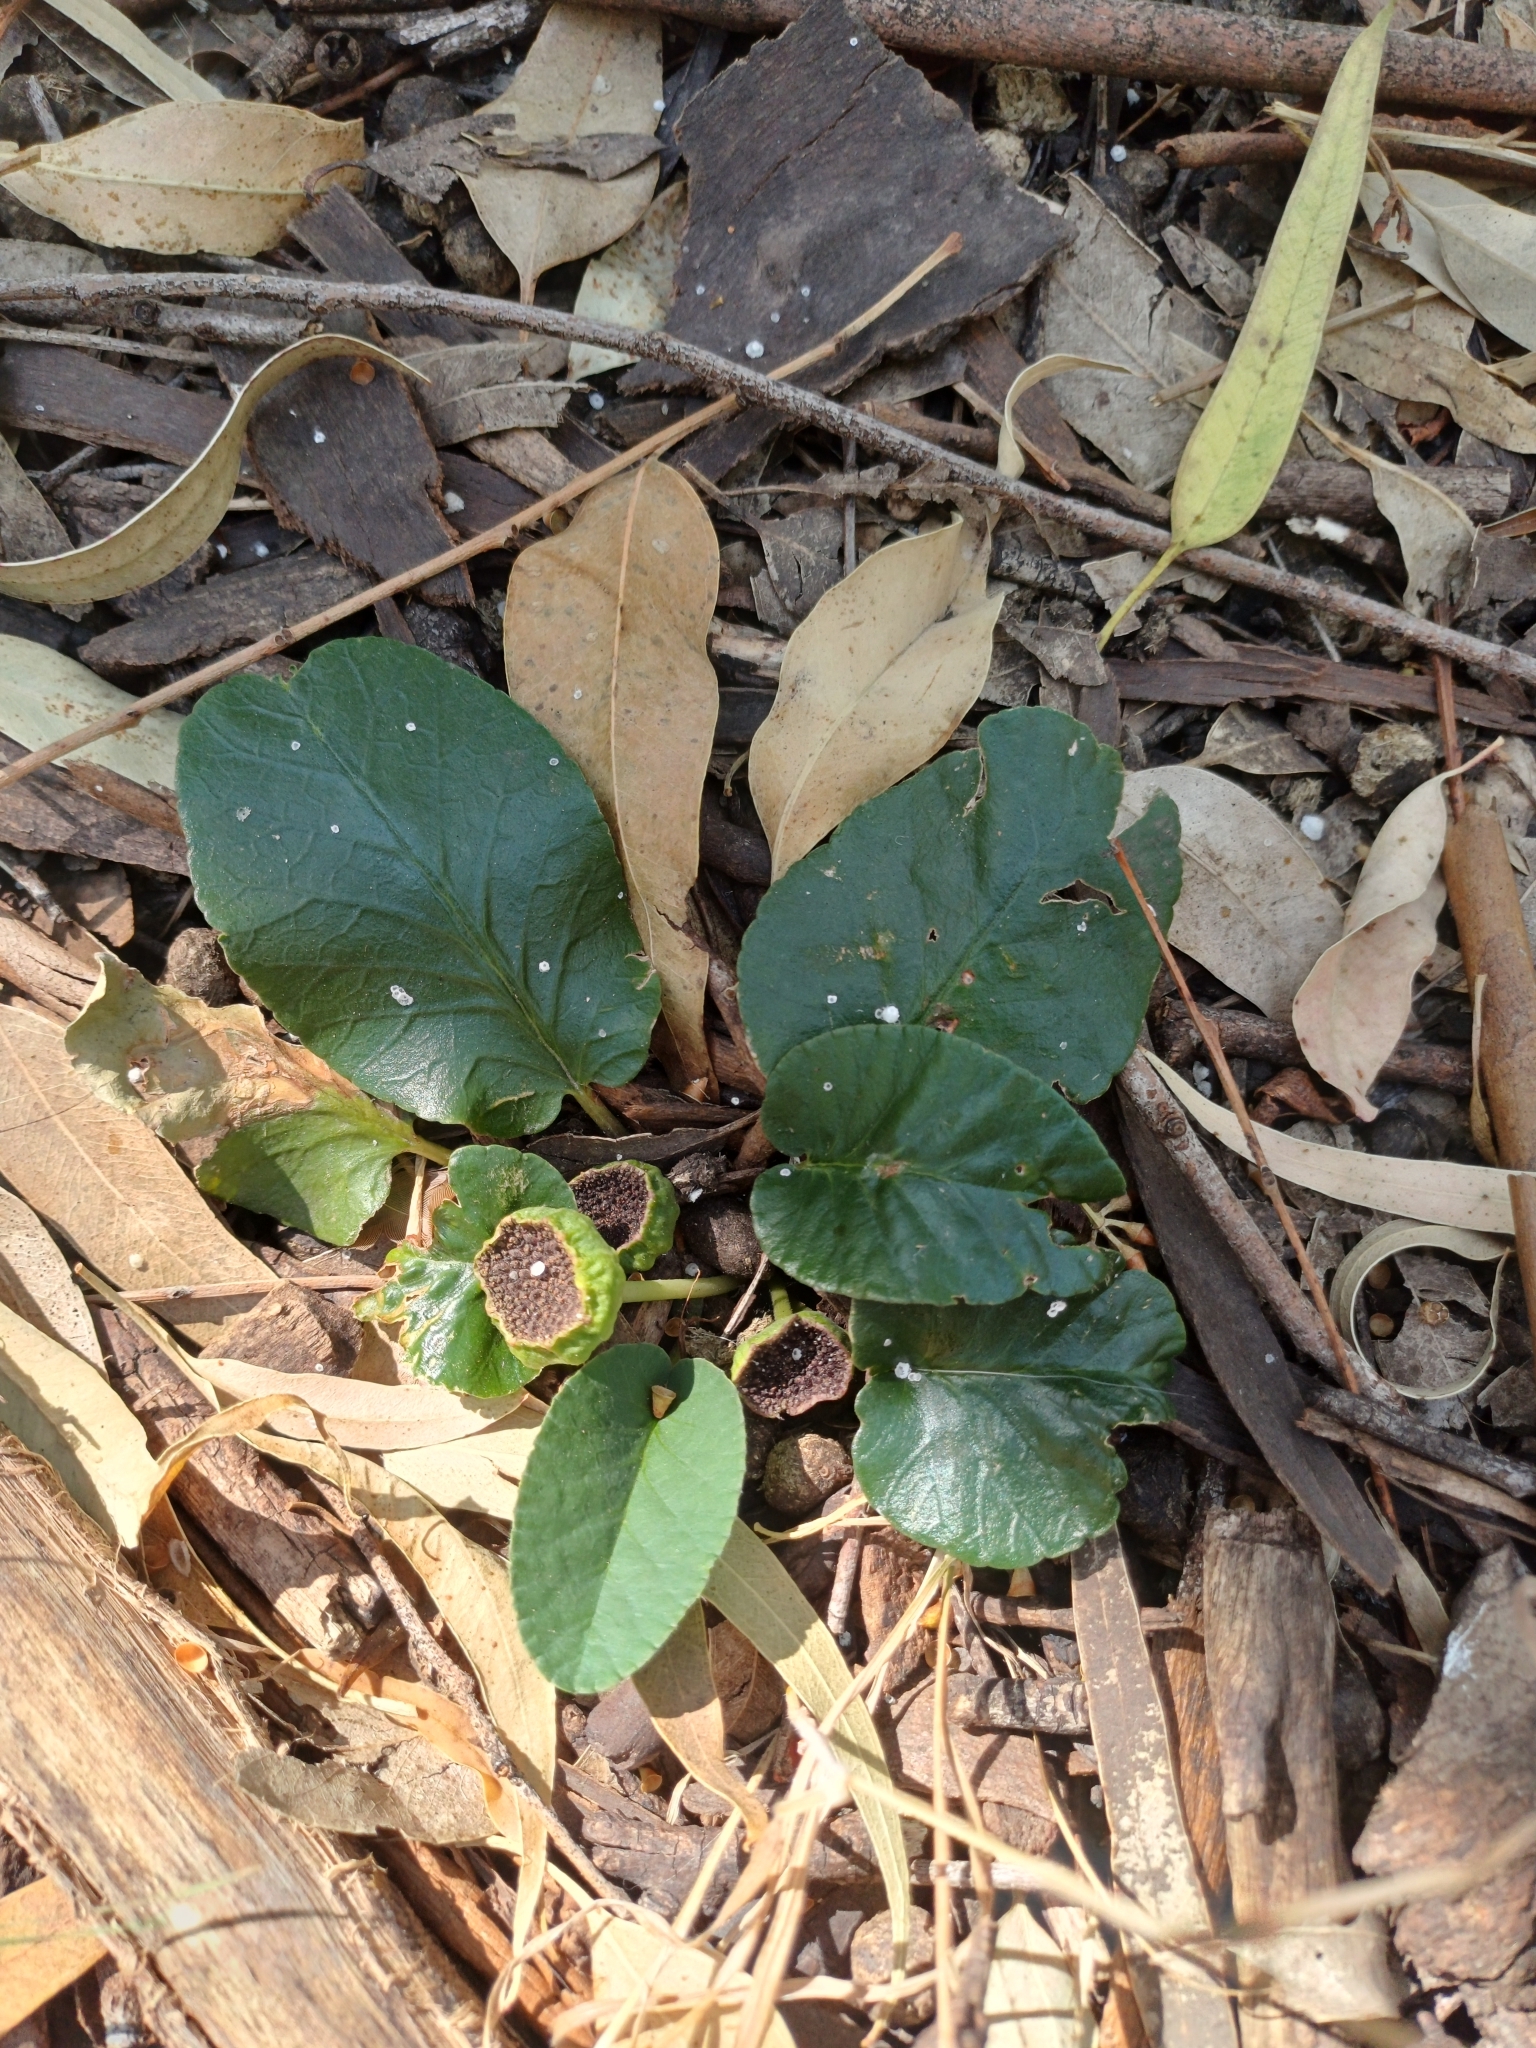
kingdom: Plantae
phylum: Tracheophyta
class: Magnoliopsida
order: Rosales
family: Moraceae
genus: Dorstenia
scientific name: Dorstenia brasiliensis
